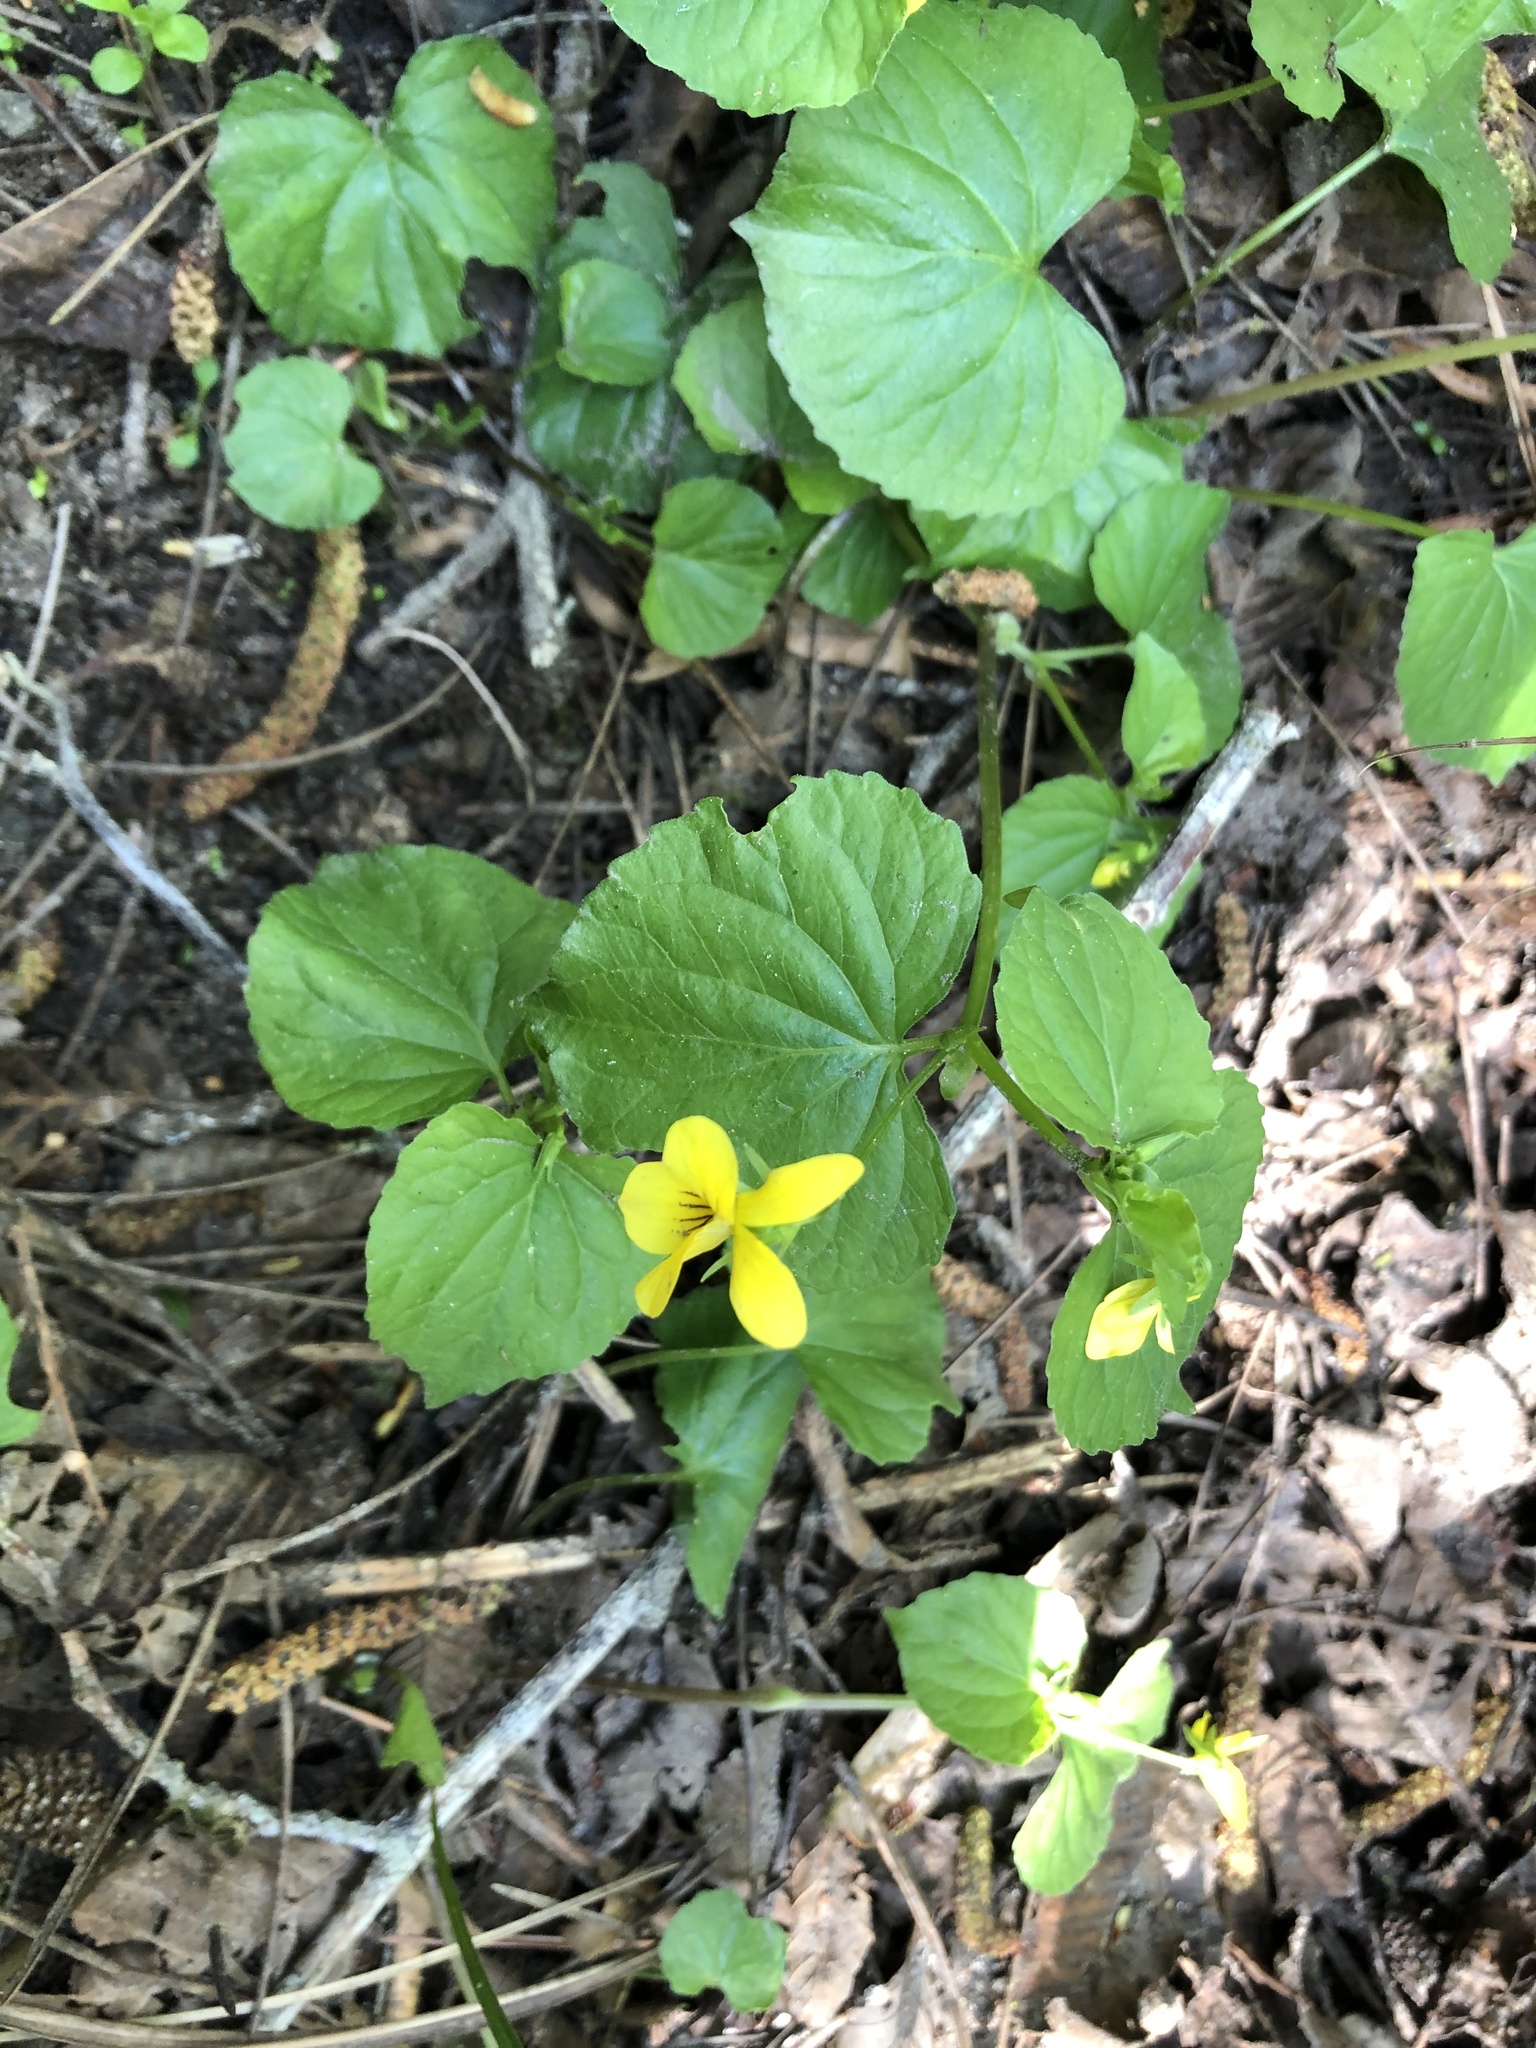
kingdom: Plantae
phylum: Tracheophyta
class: Magnoliopsida
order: Malpighiales
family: Violaceae
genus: Viola
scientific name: Viola glabella
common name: Stream violet
